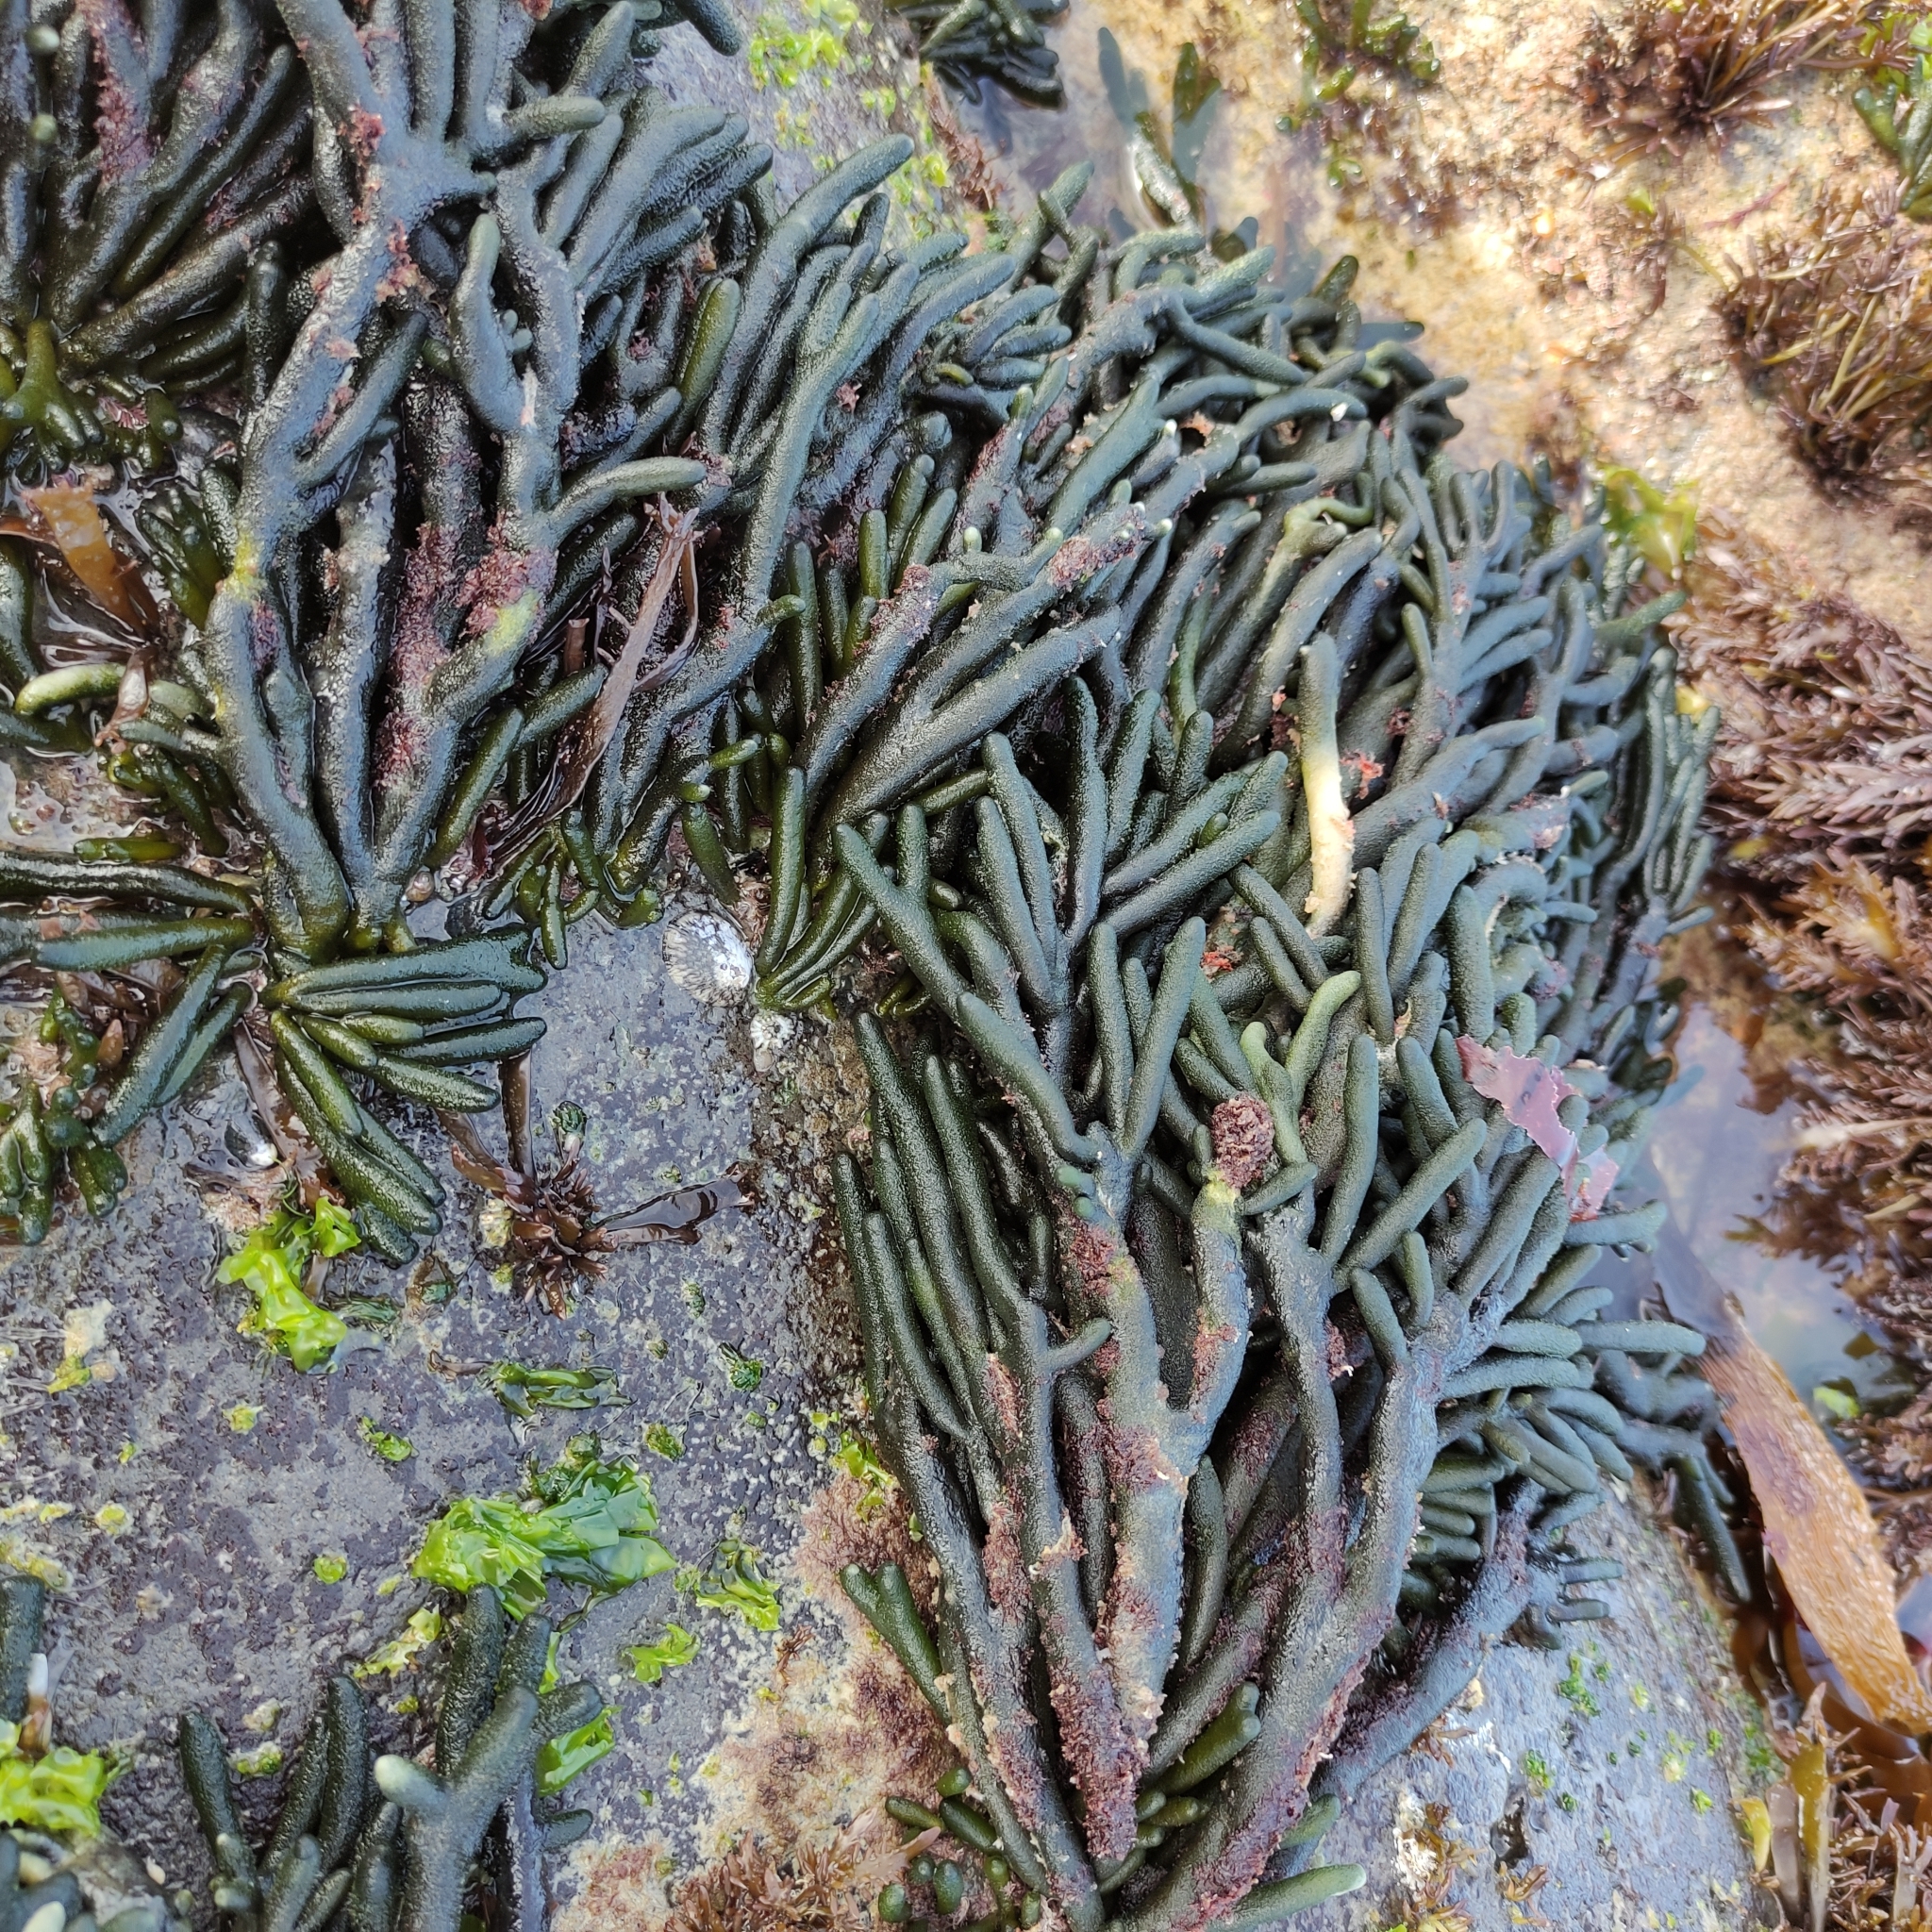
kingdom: Plantae
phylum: Chlorophyta
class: Ulvophyceae
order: Bryopsidales
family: Codiaceae
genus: Codium
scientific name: Codium fragile
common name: Dead man's fingers
